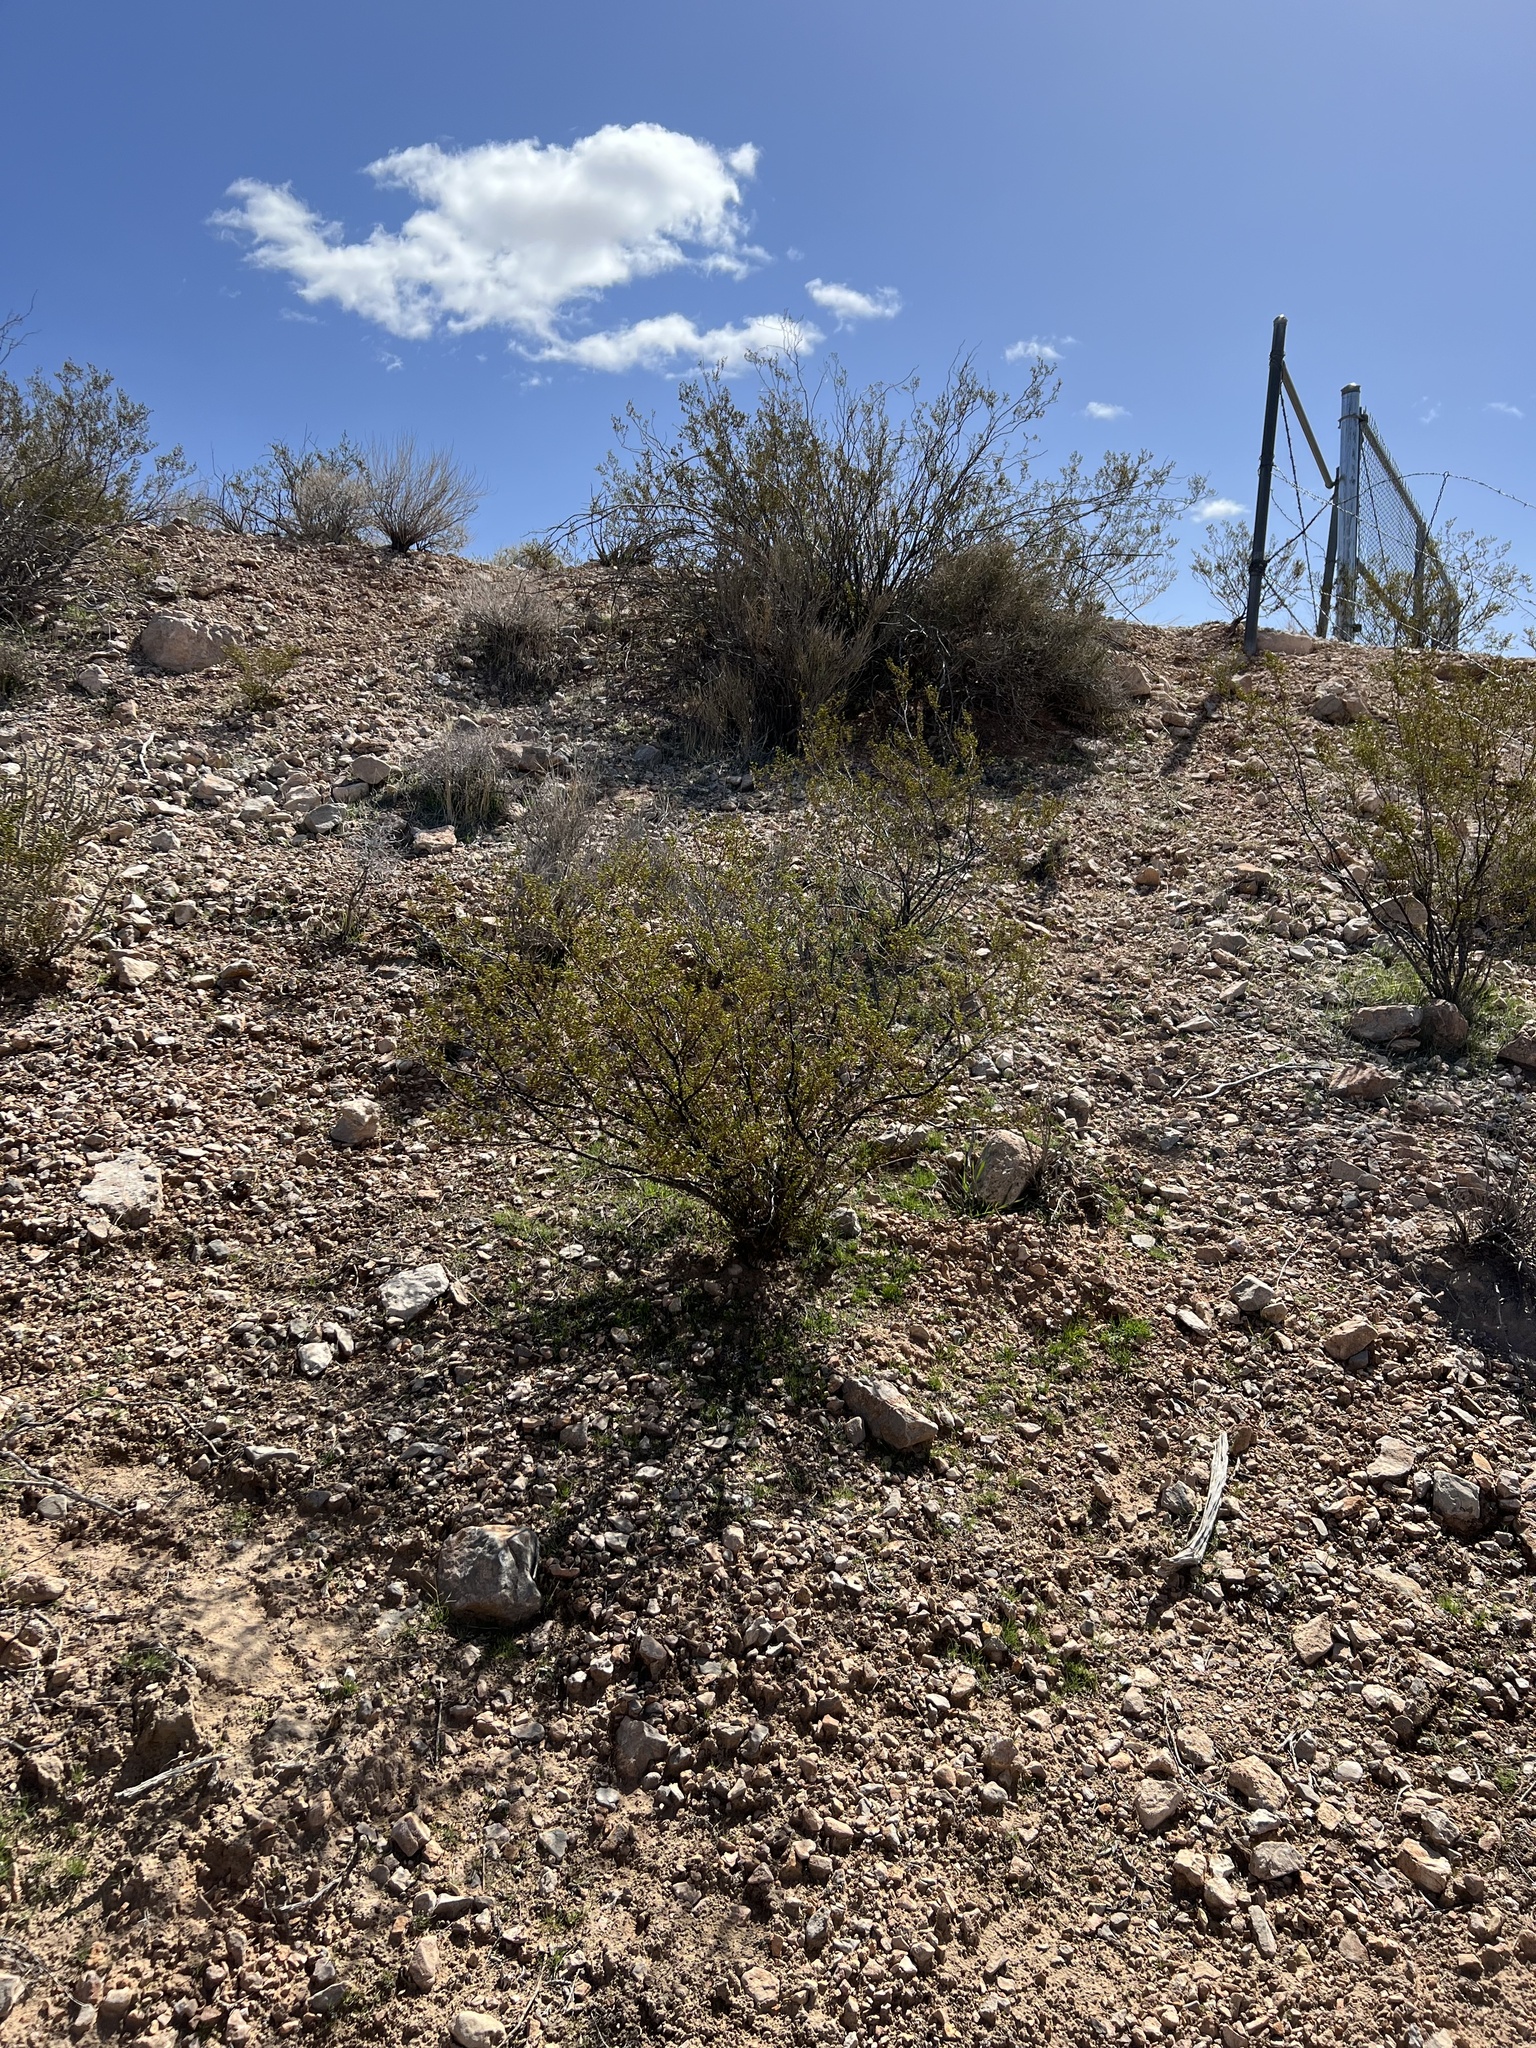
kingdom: Plantae
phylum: Tracheophyta
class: Magnoliopsida
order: Zygophyllales
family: Zygophyllaceae
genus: Larrea
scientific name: Larrea tridentata
